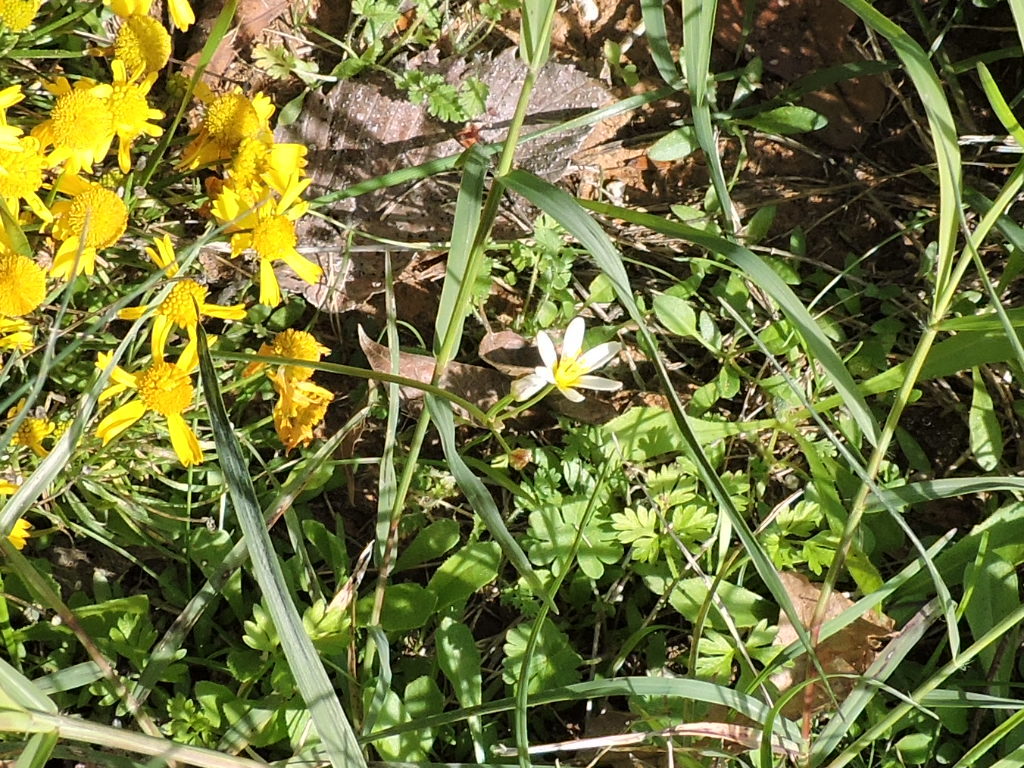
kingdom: Plantae
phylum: Tracheophyta
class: Liliopsida
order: Asparagales
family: Amaryllidaceae
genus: Nothoscordum
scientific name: Nothoscordum bivalve
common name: Crow-poison
